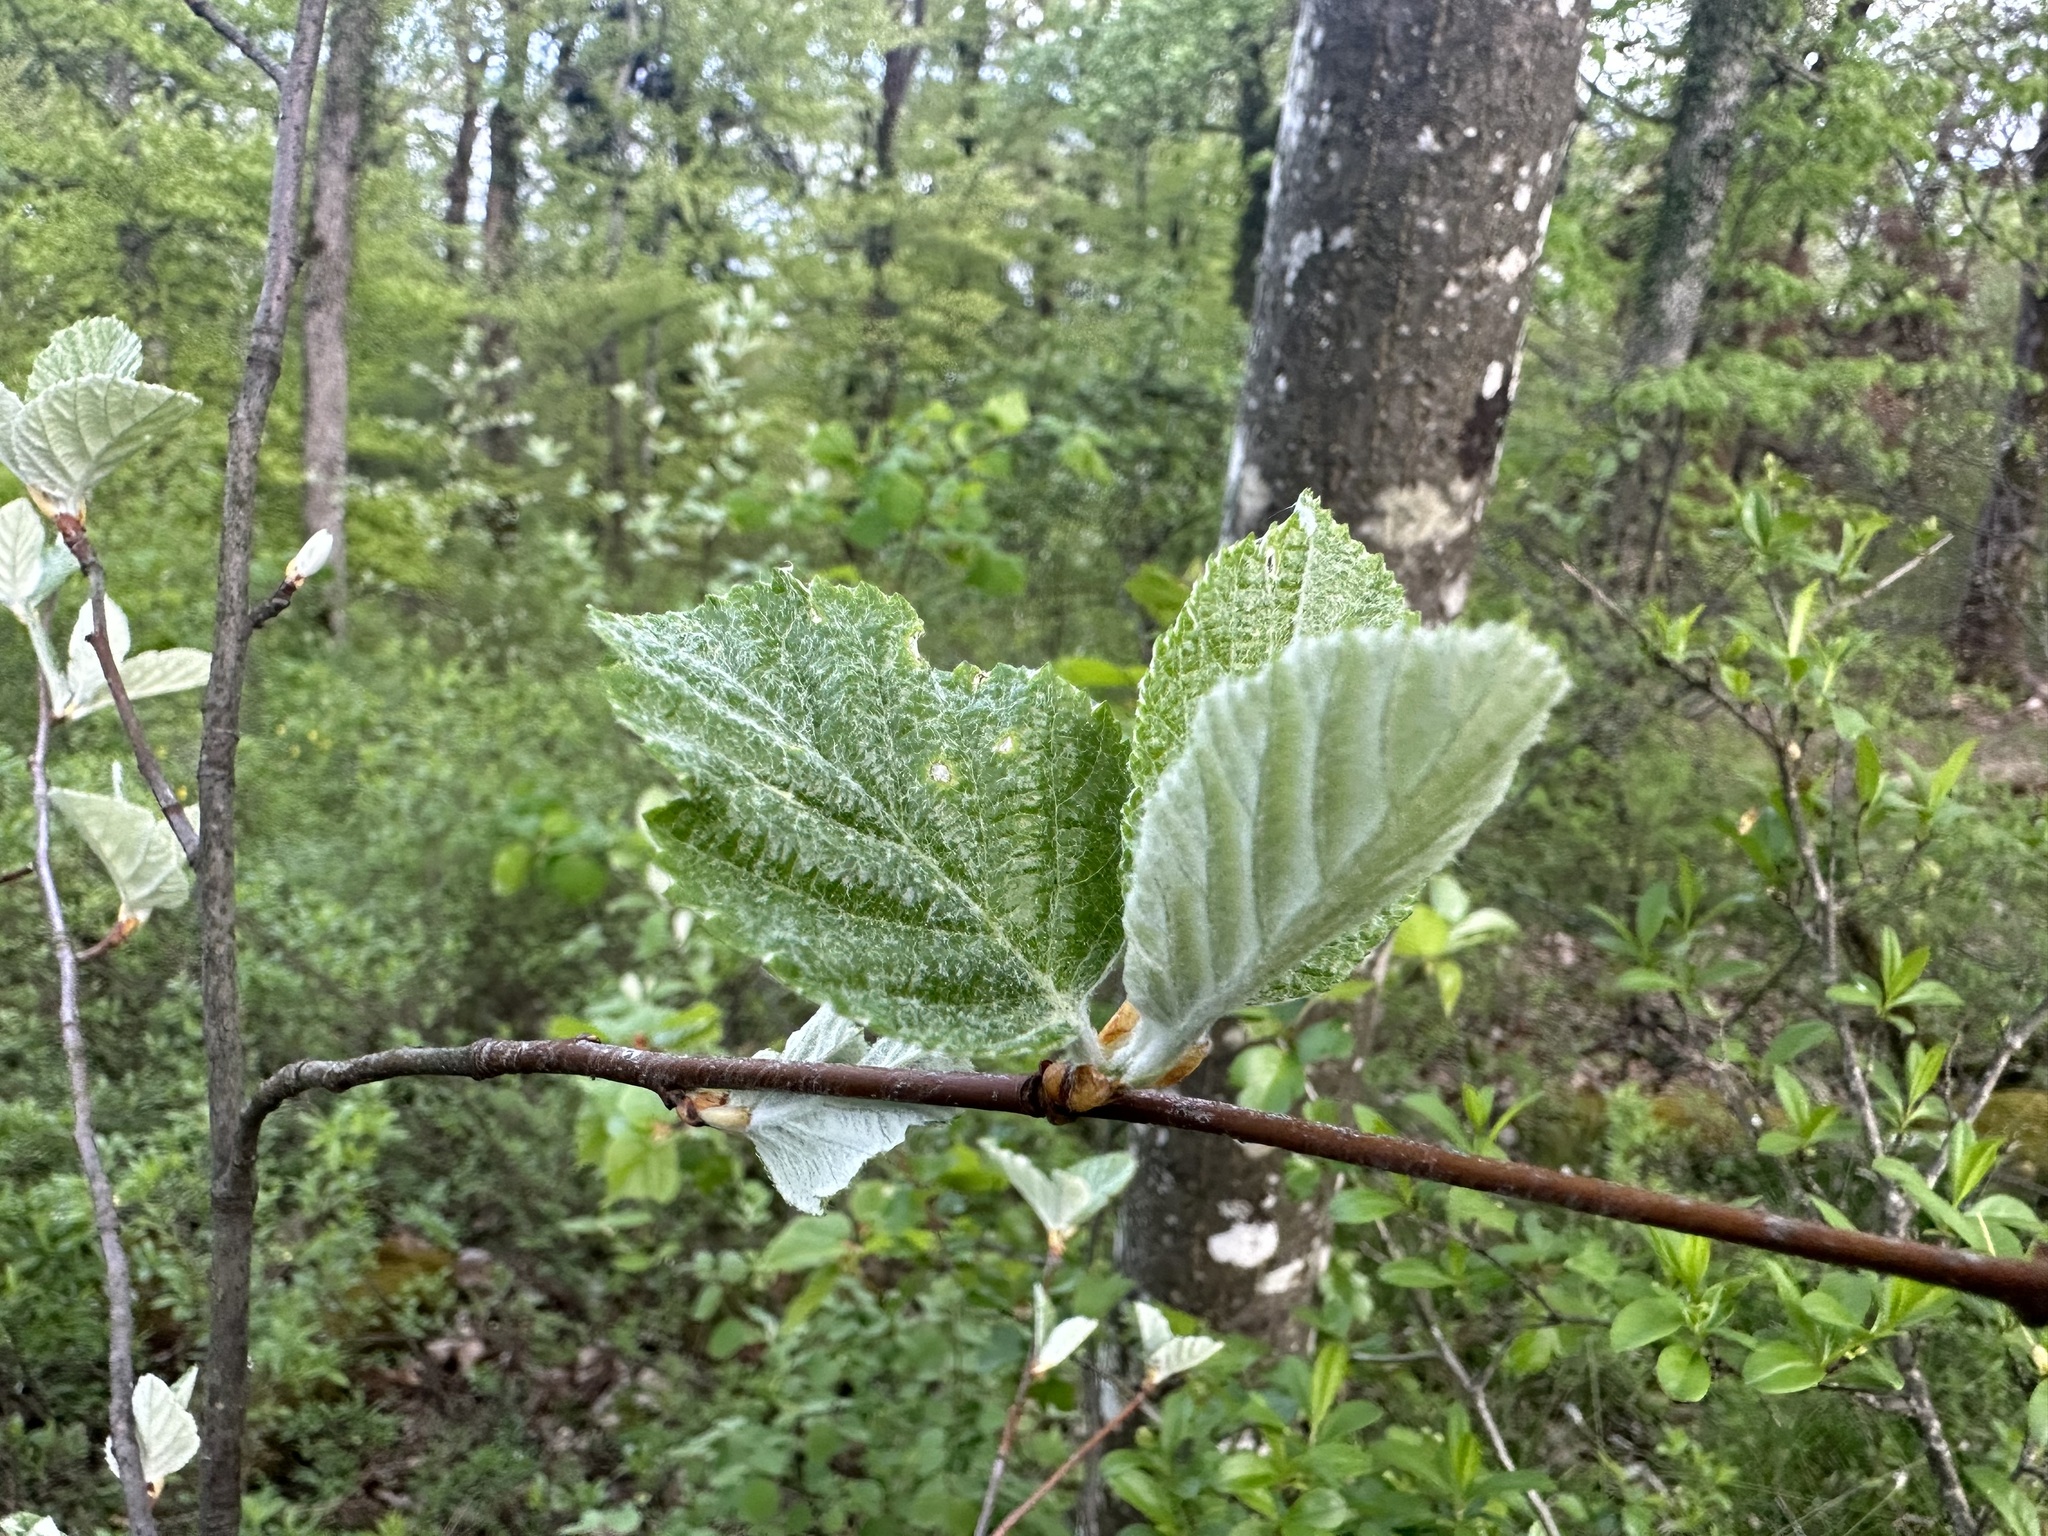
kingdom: Plantae
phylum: Tracheophyta
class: Magnoliopsida
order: Rosales
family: Rosaceae
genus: Aria
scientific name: Aria edulis
